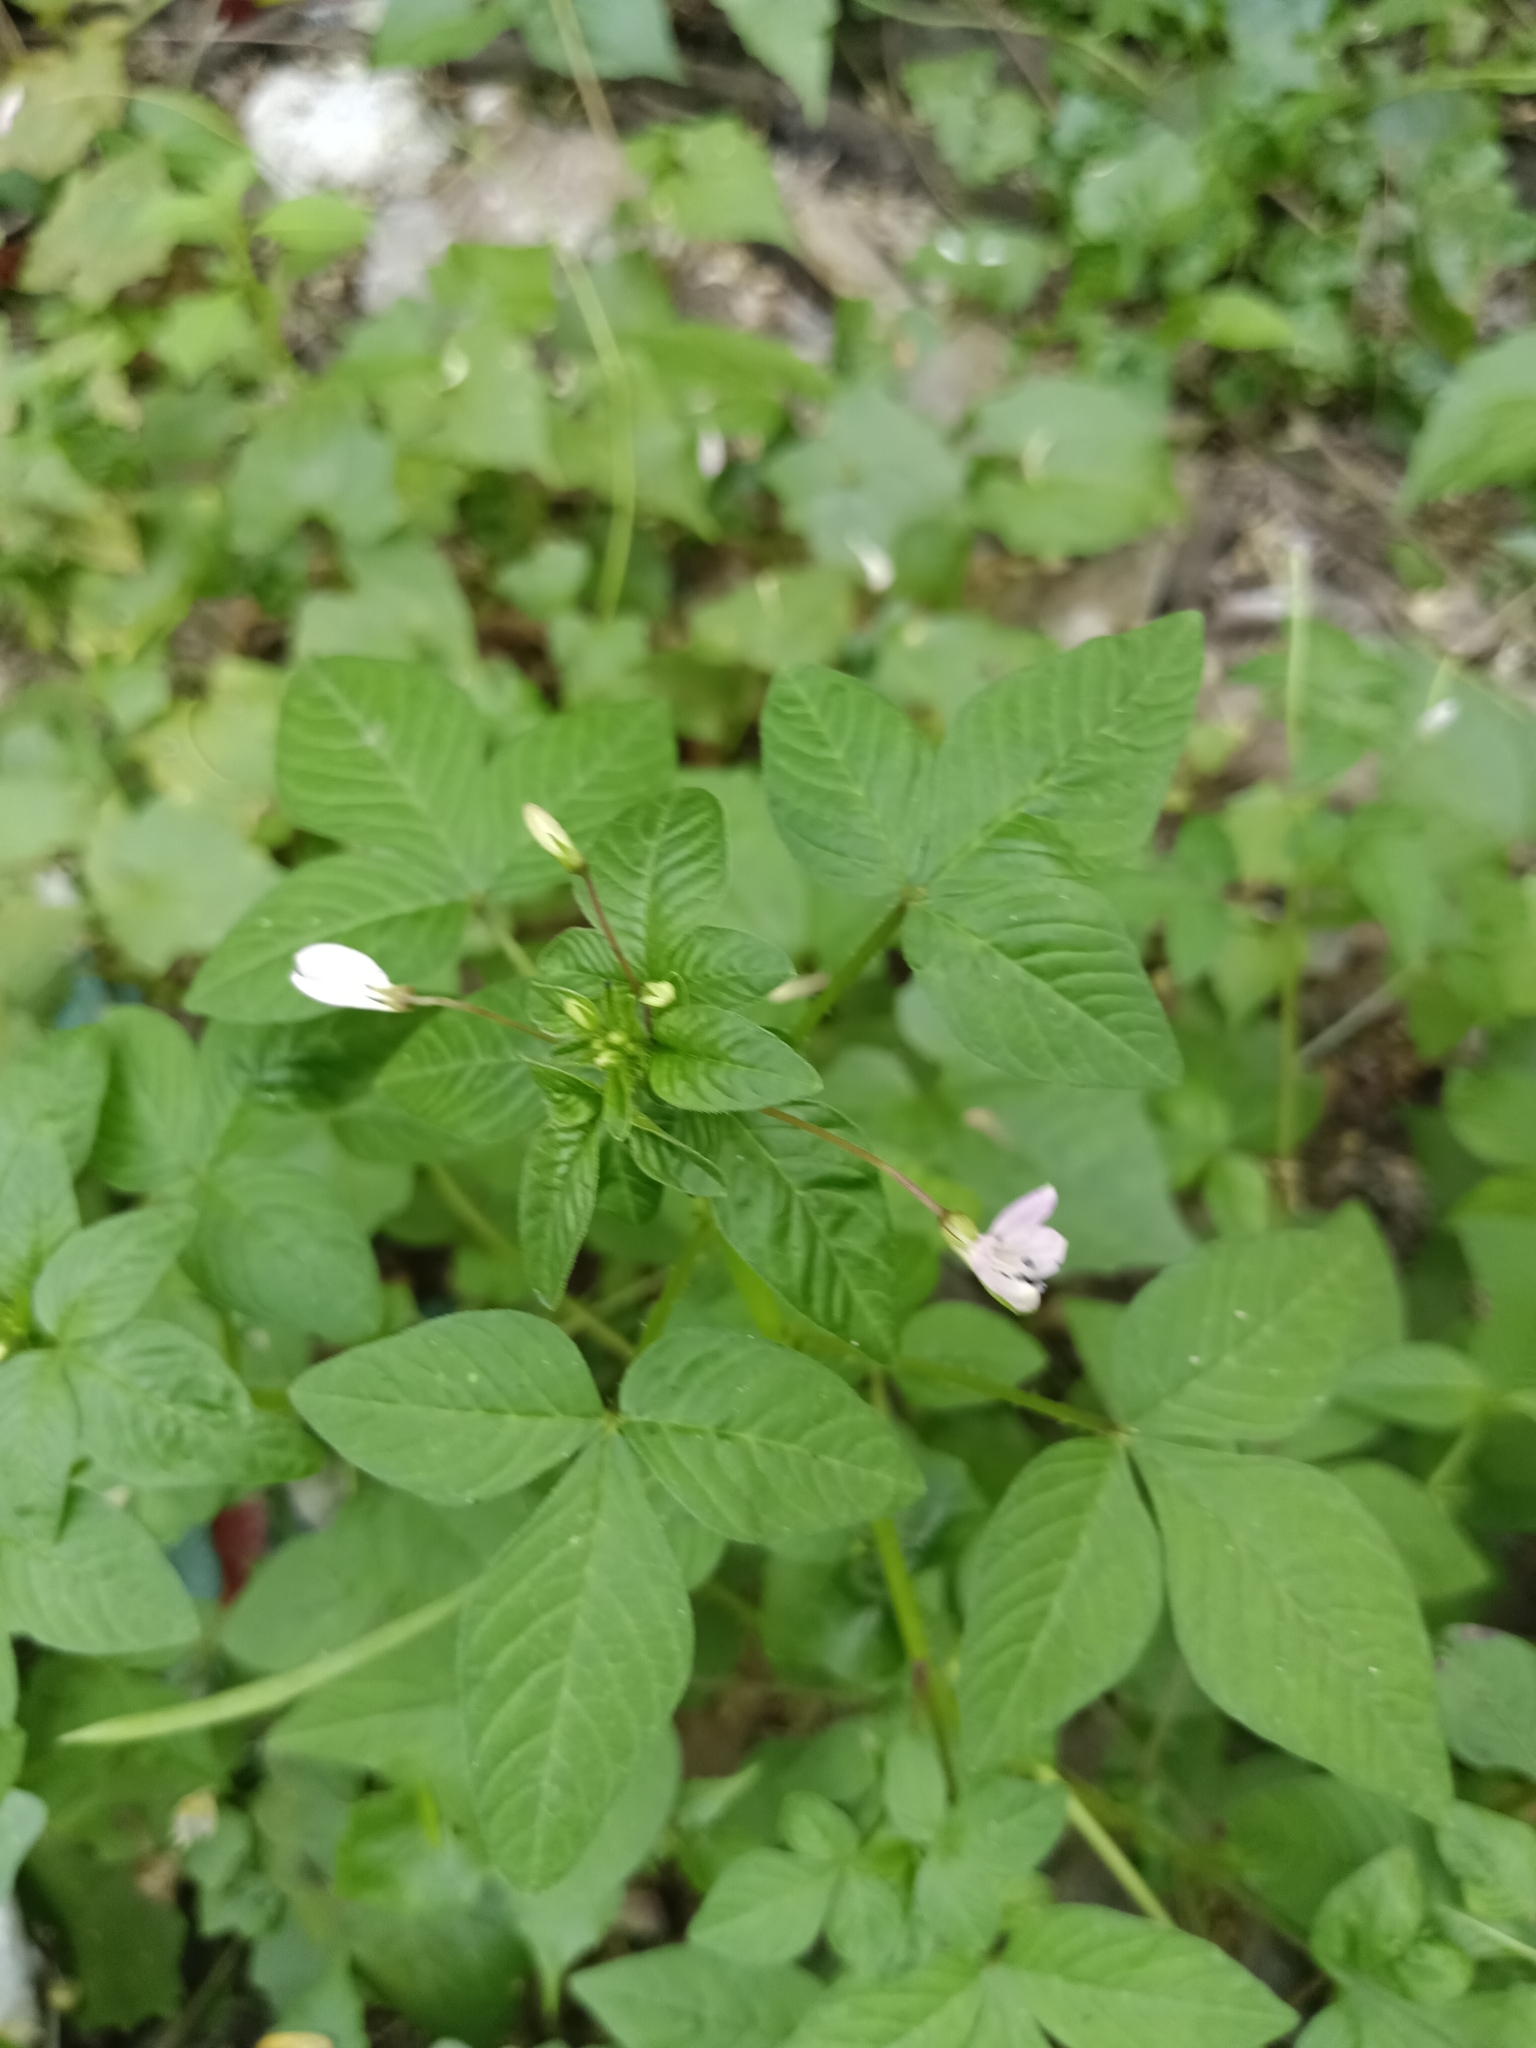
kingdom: Plantae
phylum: Tracheophyta
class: Magnoliopsida
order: Brassicales
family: Cleomaceae
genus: Sieruela
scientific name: Sieruela rutidosperma
